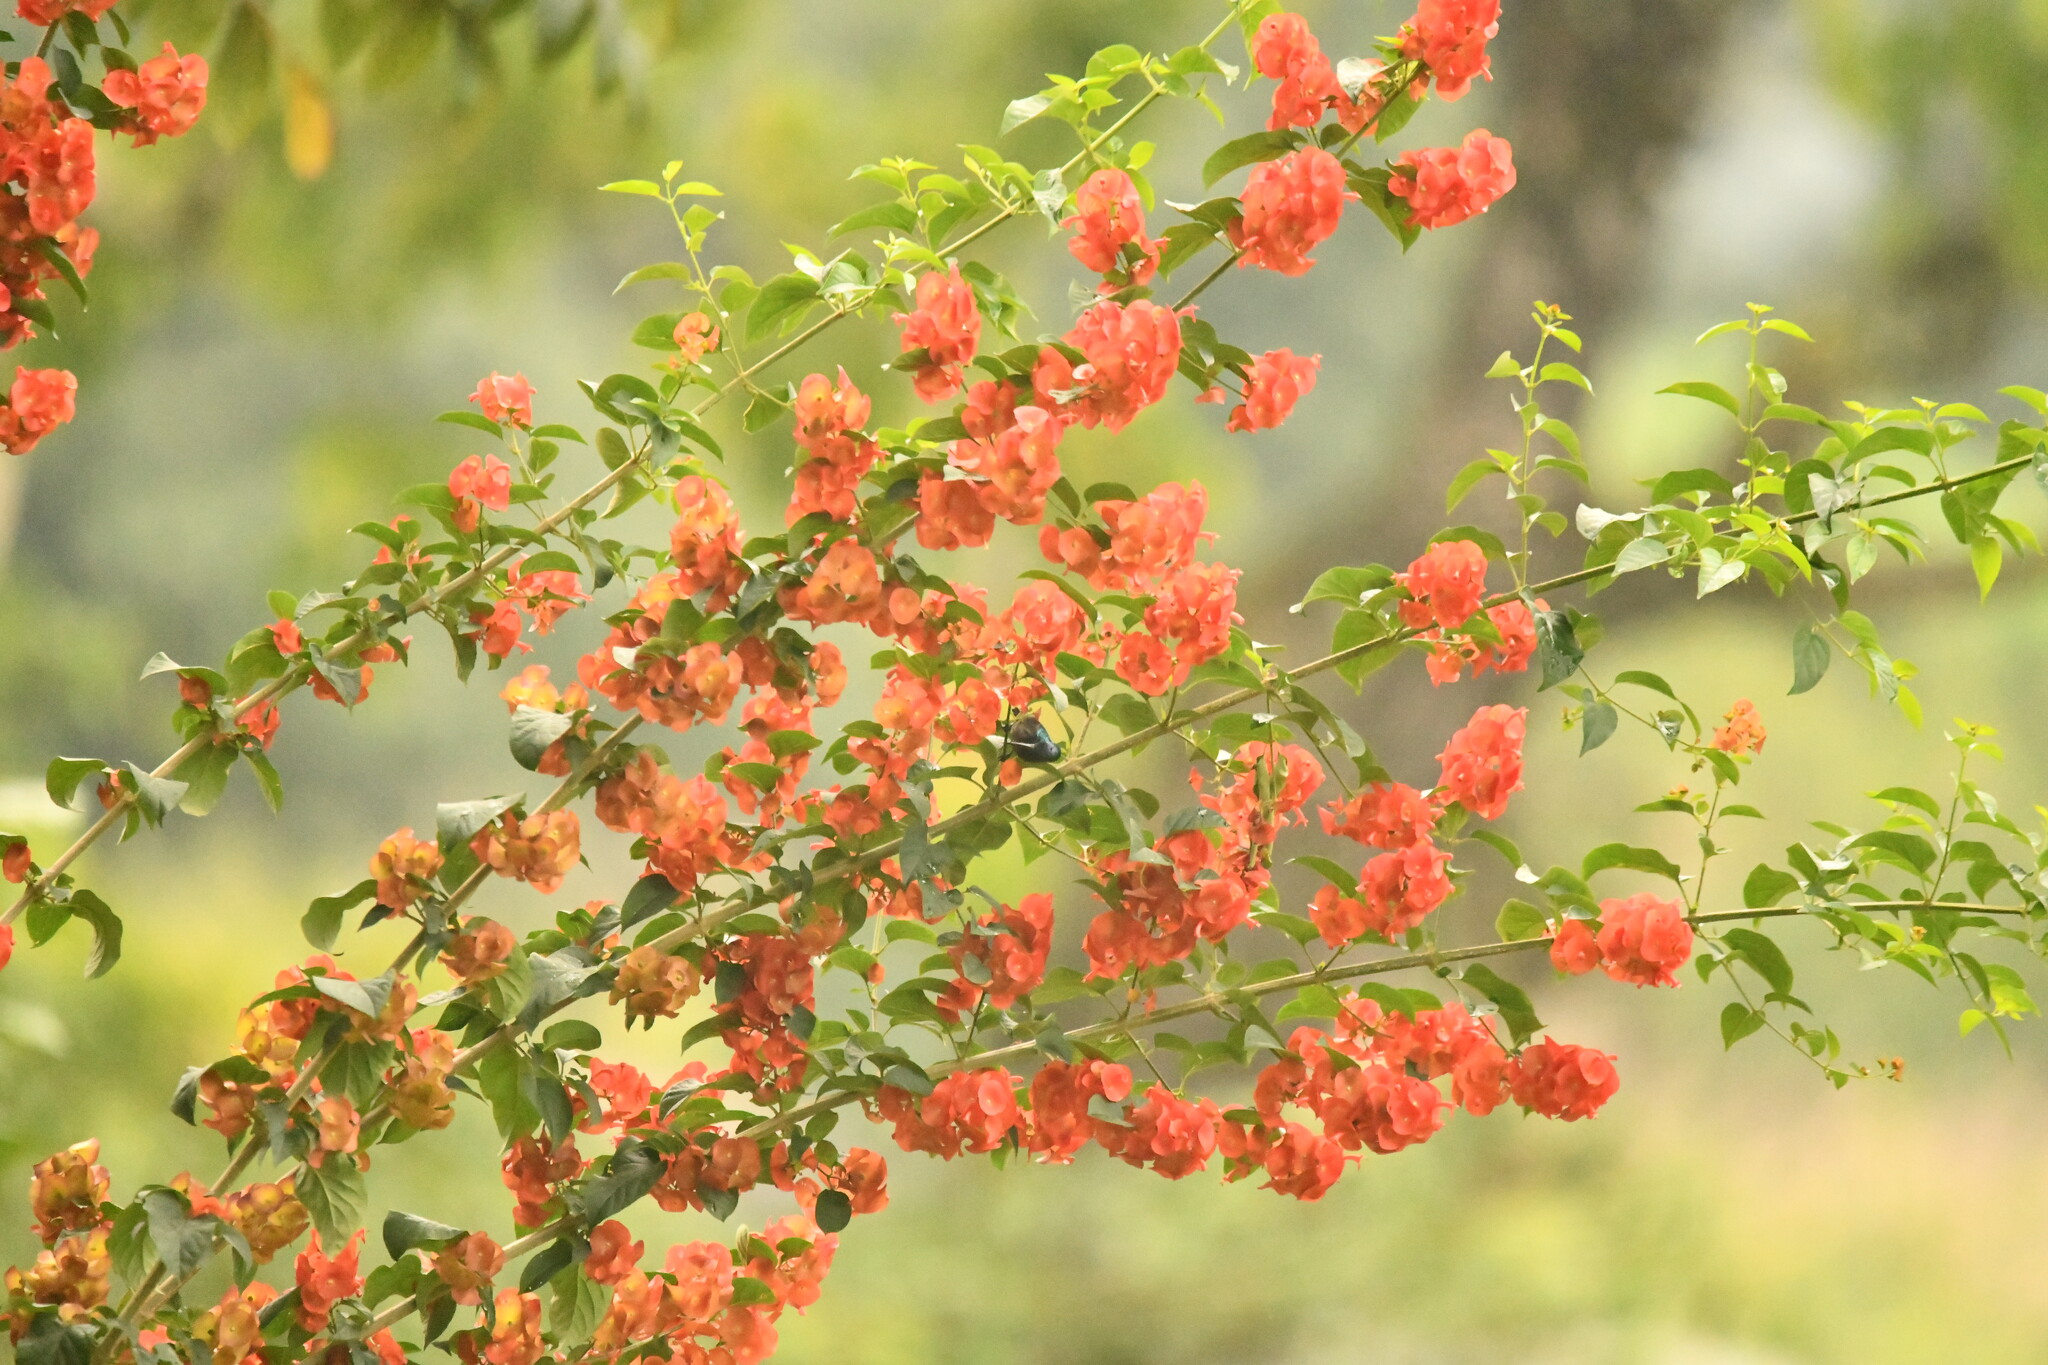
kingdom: Animalia
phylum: Chordata
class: Aves
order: Passeriformes
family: Nectariniidae
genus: Cinnyris
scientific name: Cinnyris lotenius
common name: Loten's sunbird
